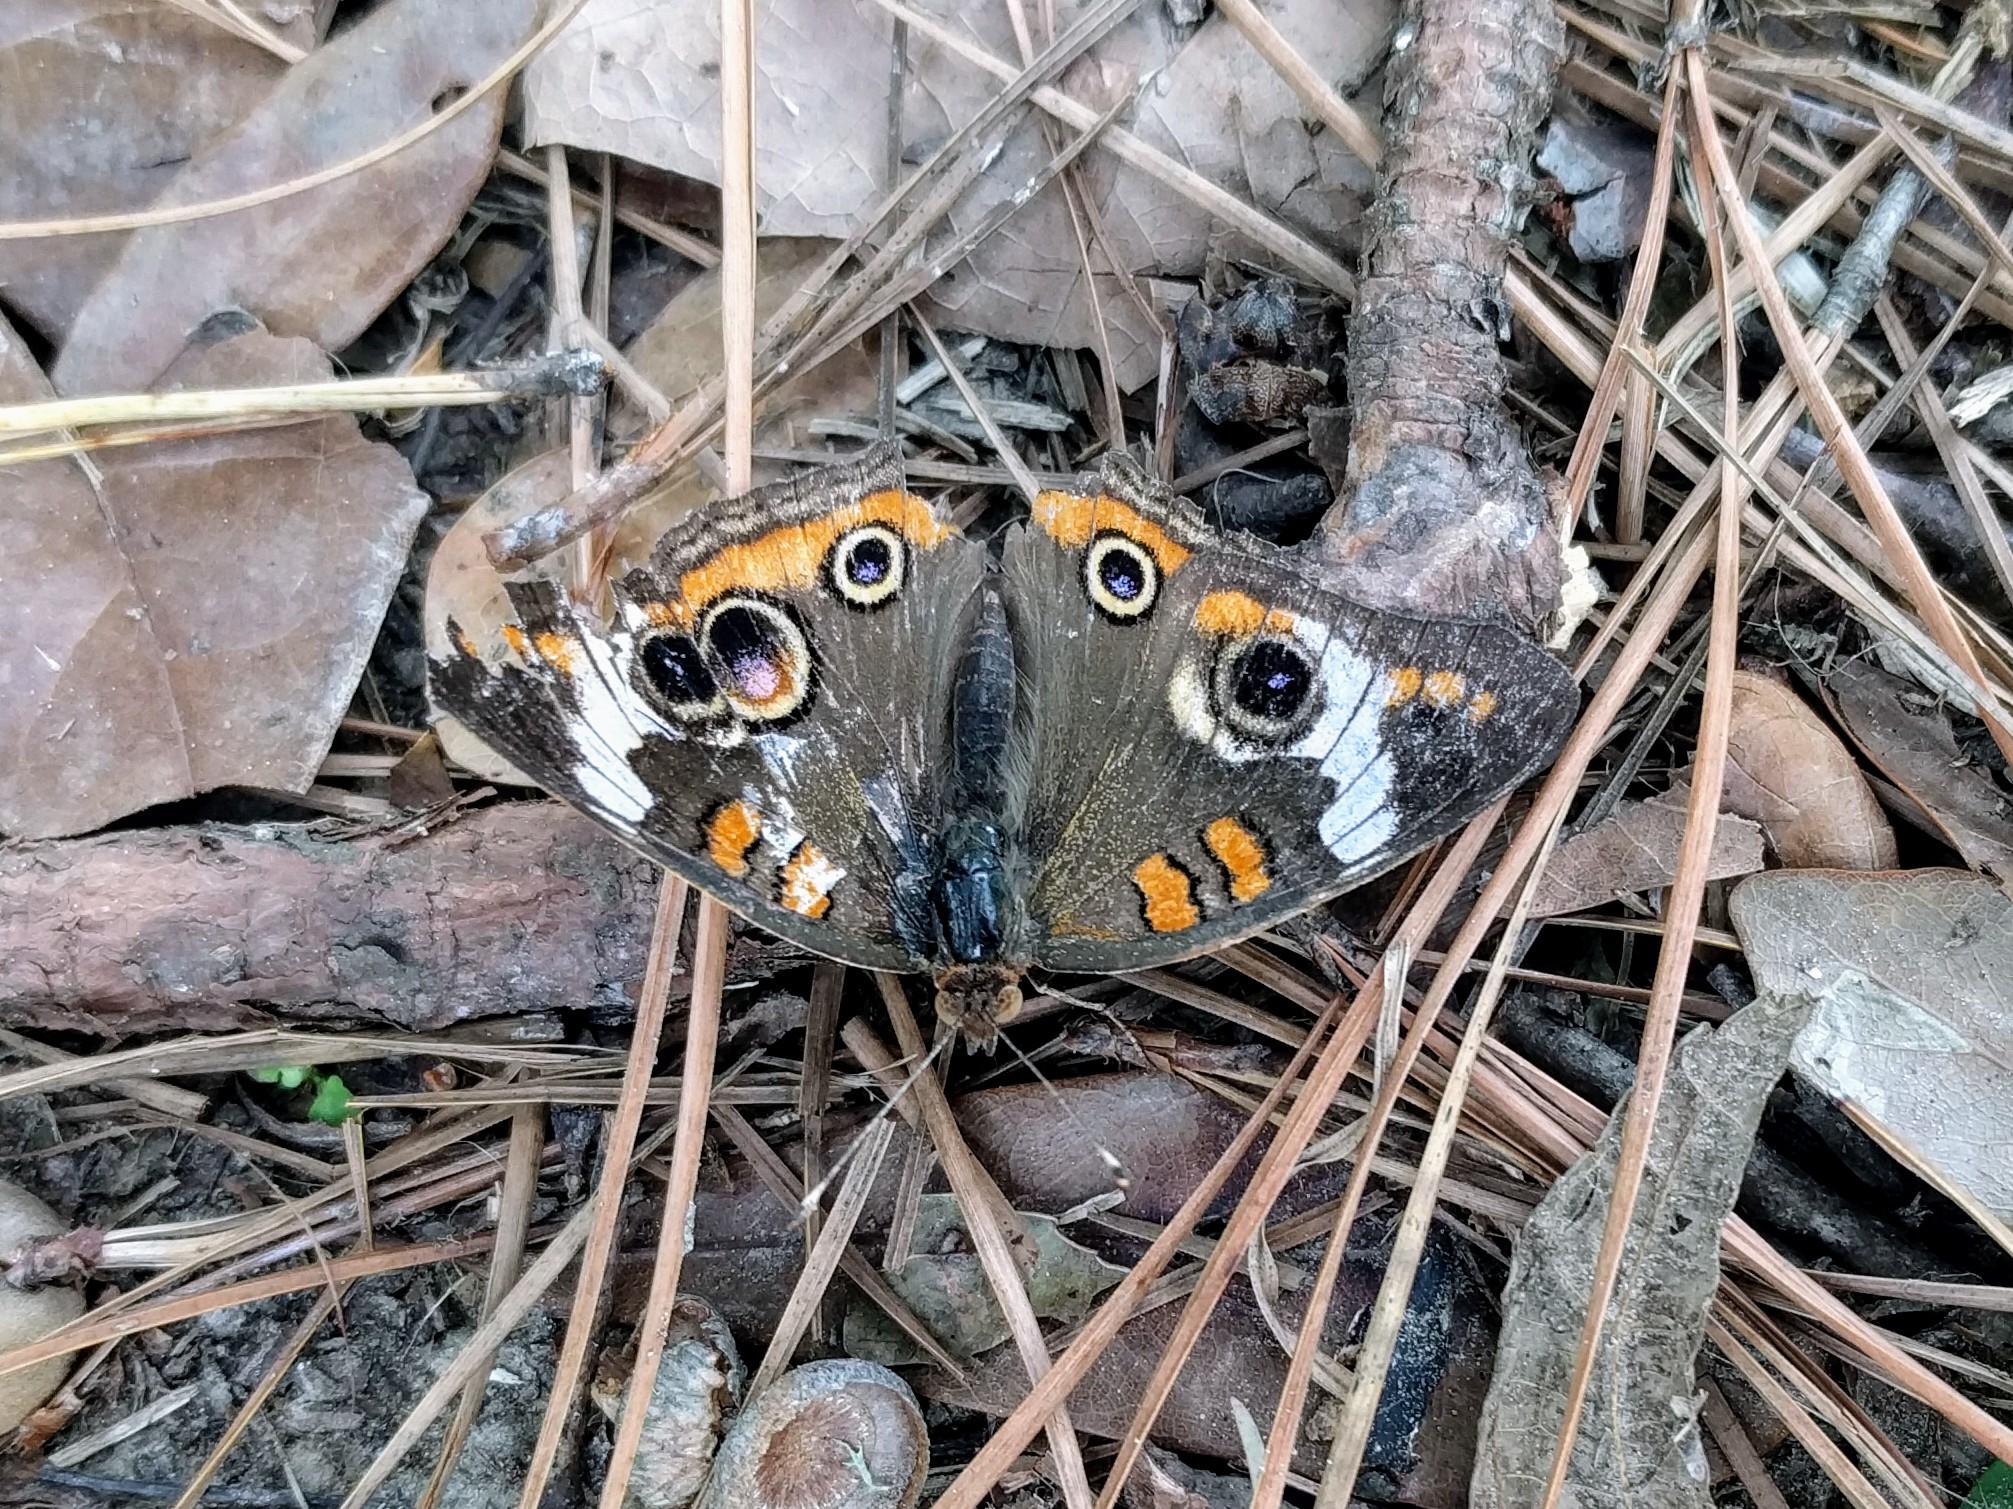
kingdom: Animalia
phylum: Arthropoda
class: Insecta
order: Lepidoptera
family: Nymphalidae
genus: Junonia
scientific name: Junonia coenia
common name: Common buckeye
